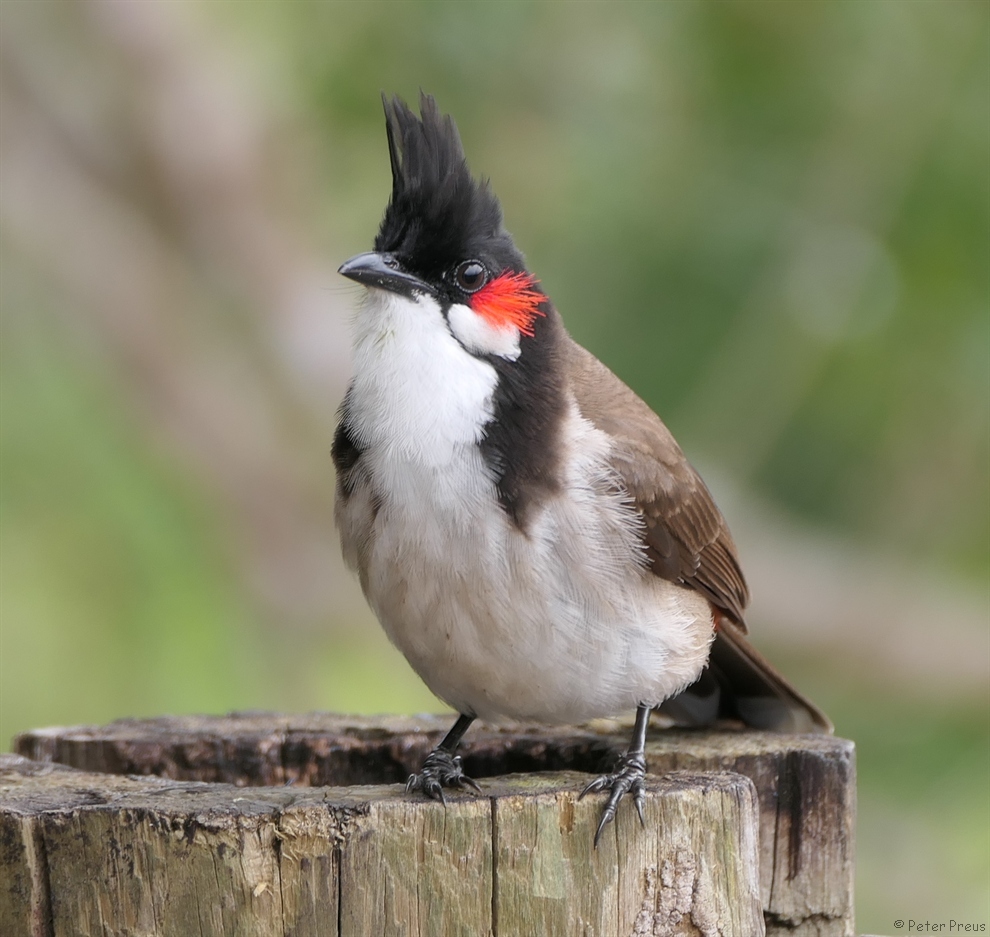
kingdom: Animalia
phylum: Chordata
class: Aves
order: Passeriformes
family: Pycnonotidae
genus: Pycnonotus
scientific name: Pycnonotus jocosus
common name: Red-whiskered bulbul
